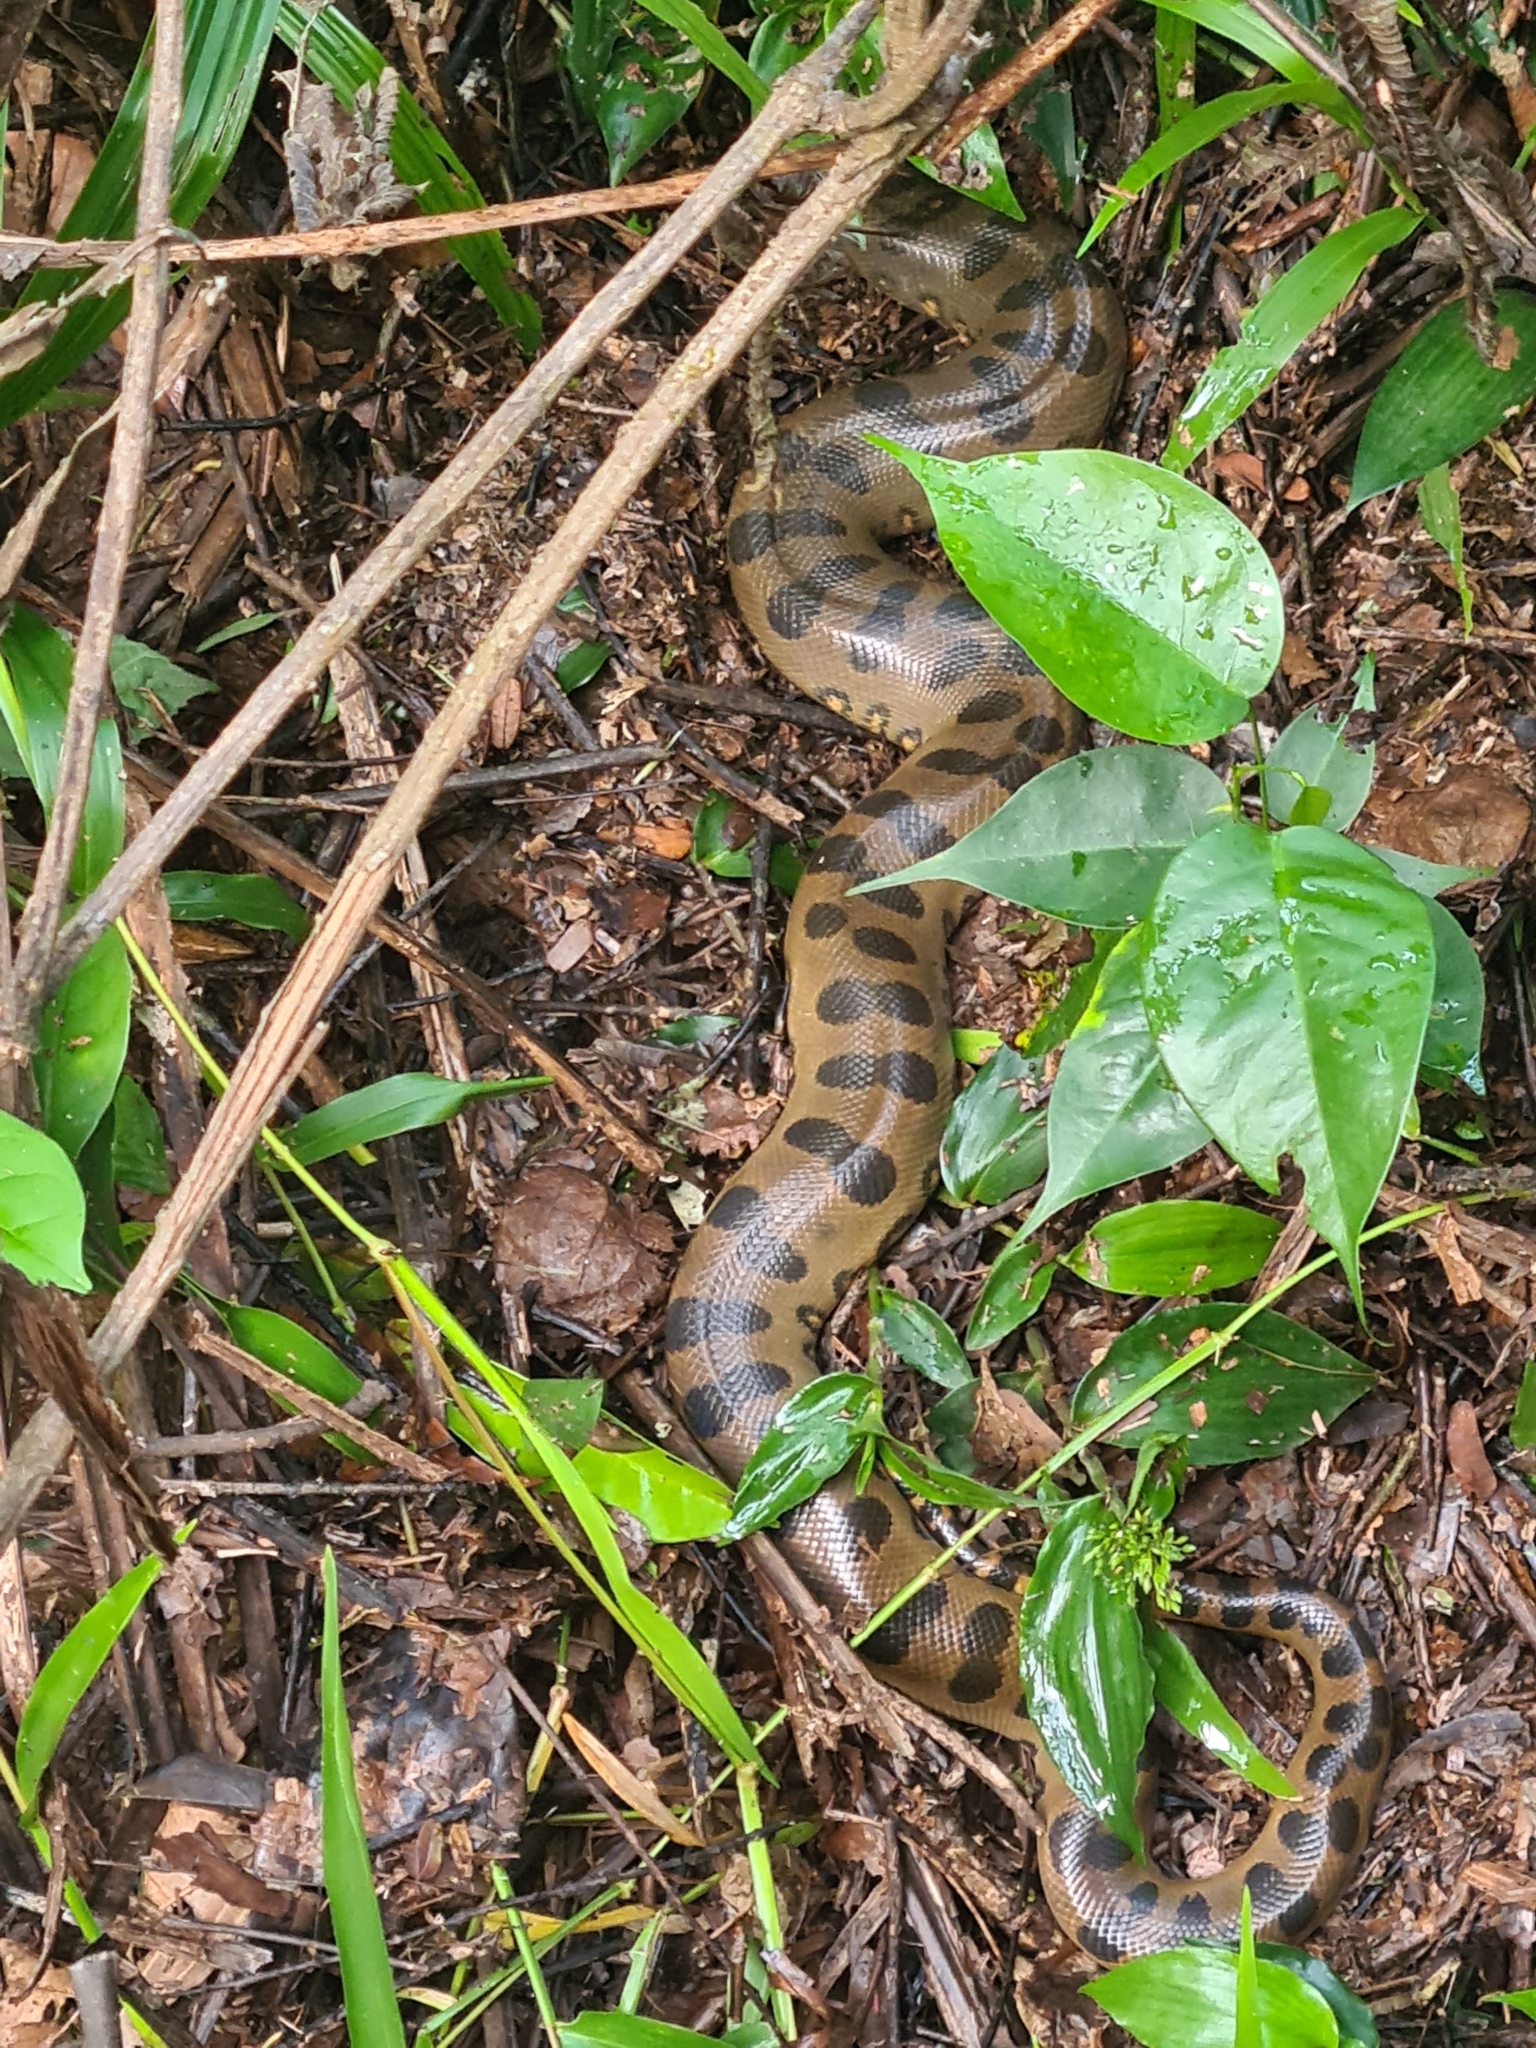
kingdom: Animalia
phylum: Chordata
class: Squamata
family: Boidae
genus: Eunectes
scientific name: Eunectes murinus
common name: Anaconda
